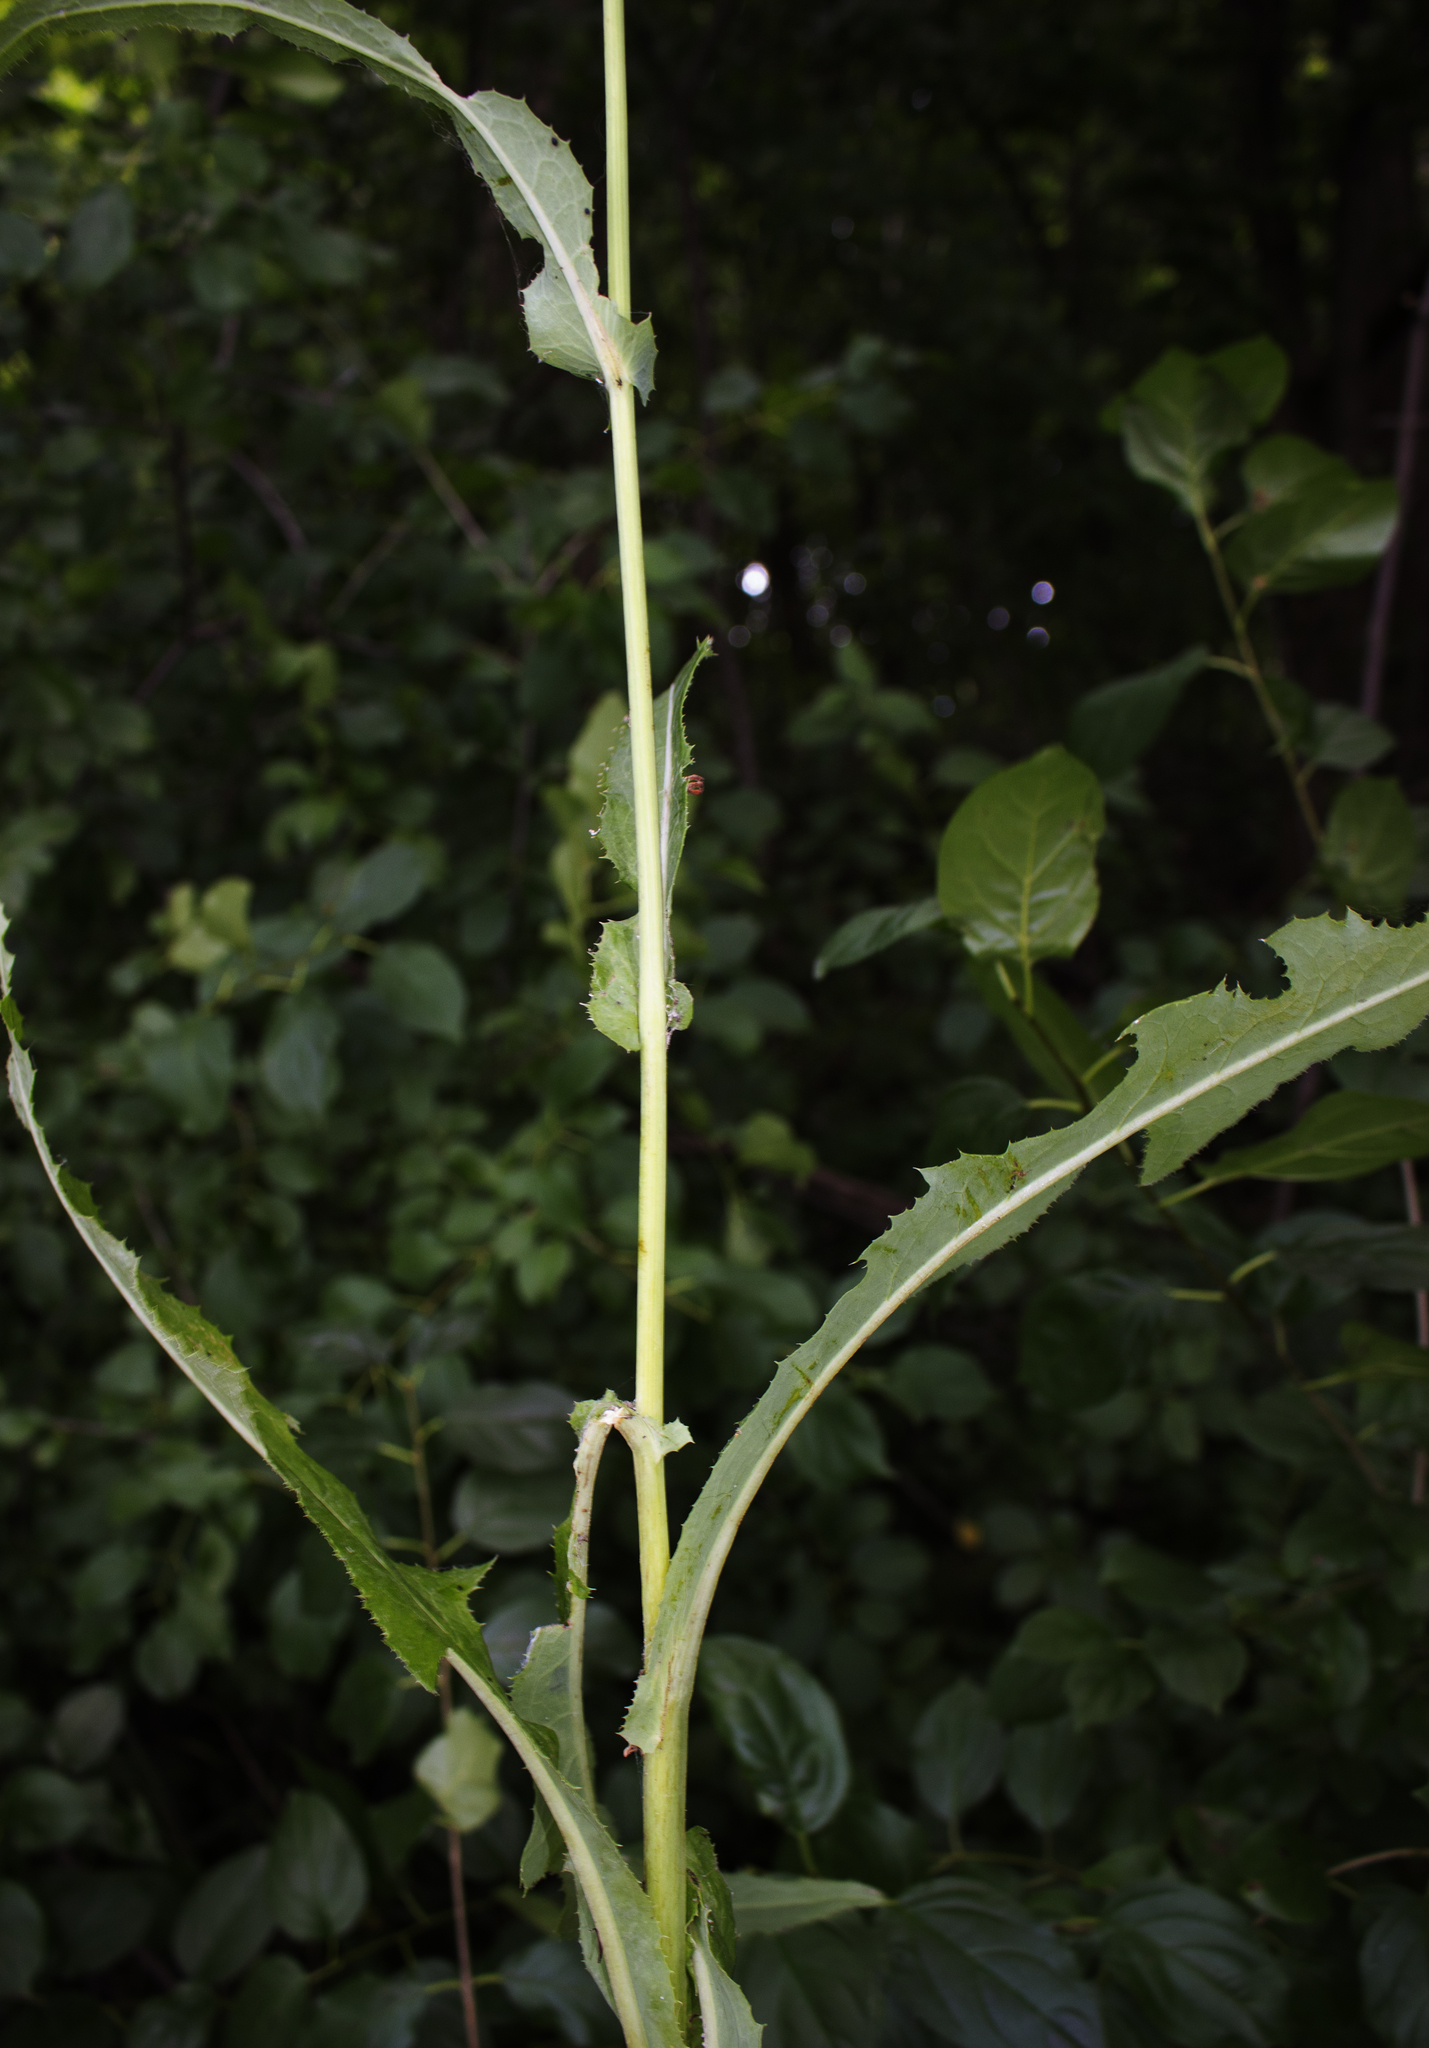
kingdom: Plantae
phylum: Tracheophyta
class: Magnoliopsida
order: Asterales
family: Asteraceae
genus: Sonchus
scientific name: Sonchus arvensis
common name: Perennial sow-thistle
